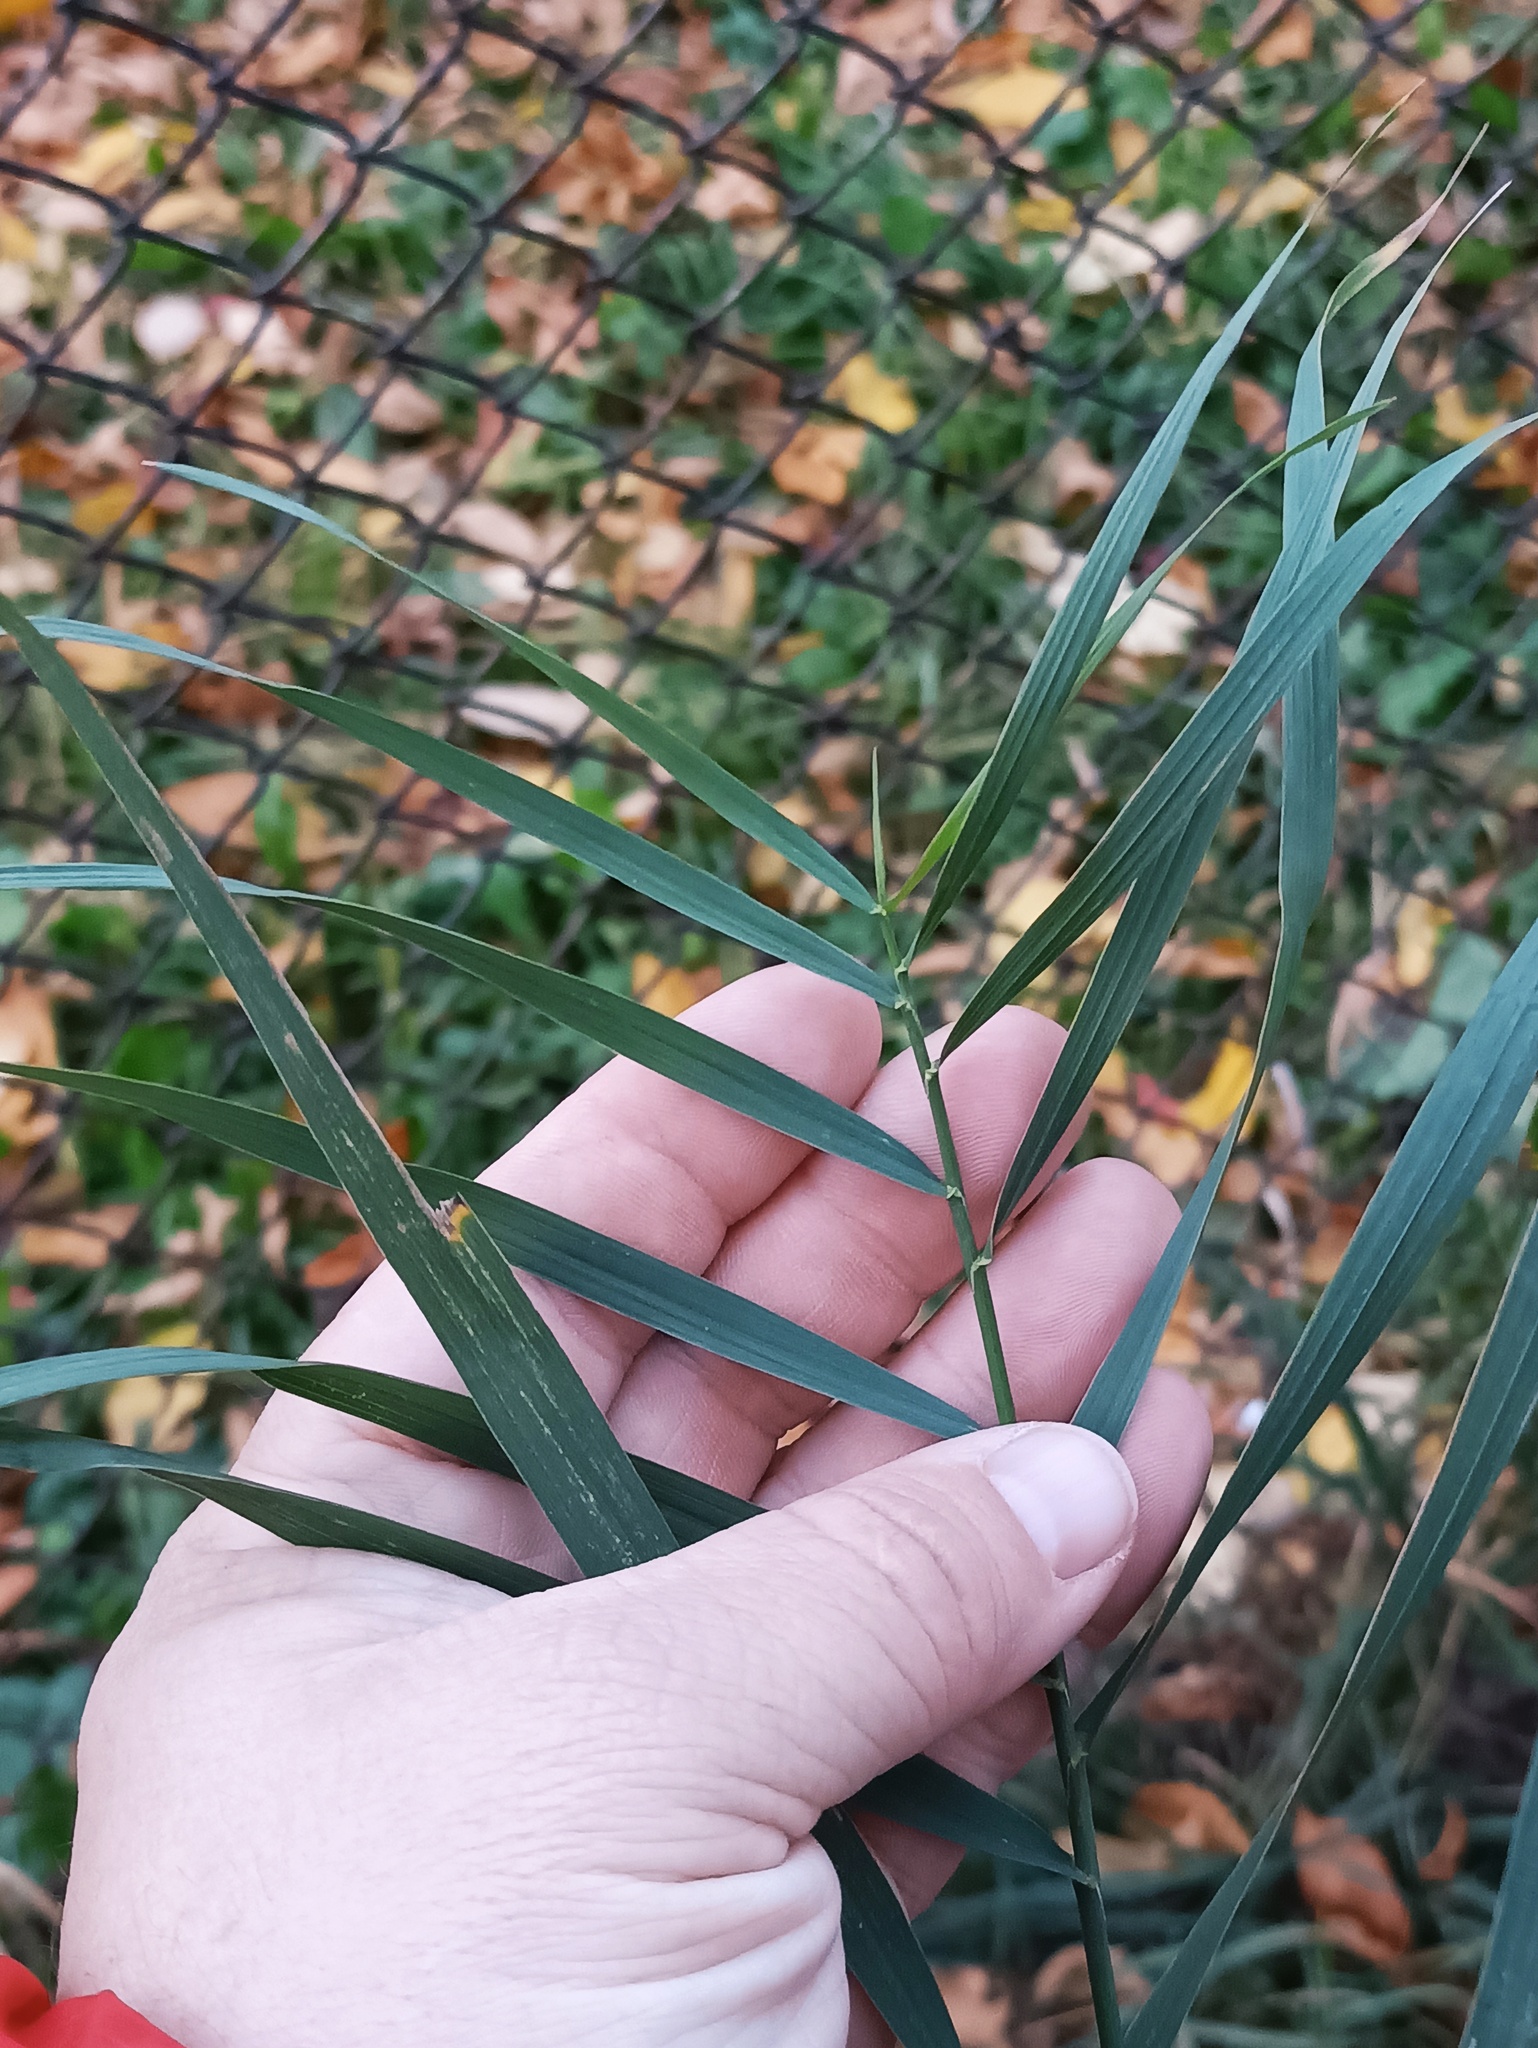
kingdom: Plantae
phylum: Tracheophyta
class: Liliopsida
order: Poales
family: Poaceae
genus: Phragmites
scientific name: Phragmites australis
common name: Common reed
